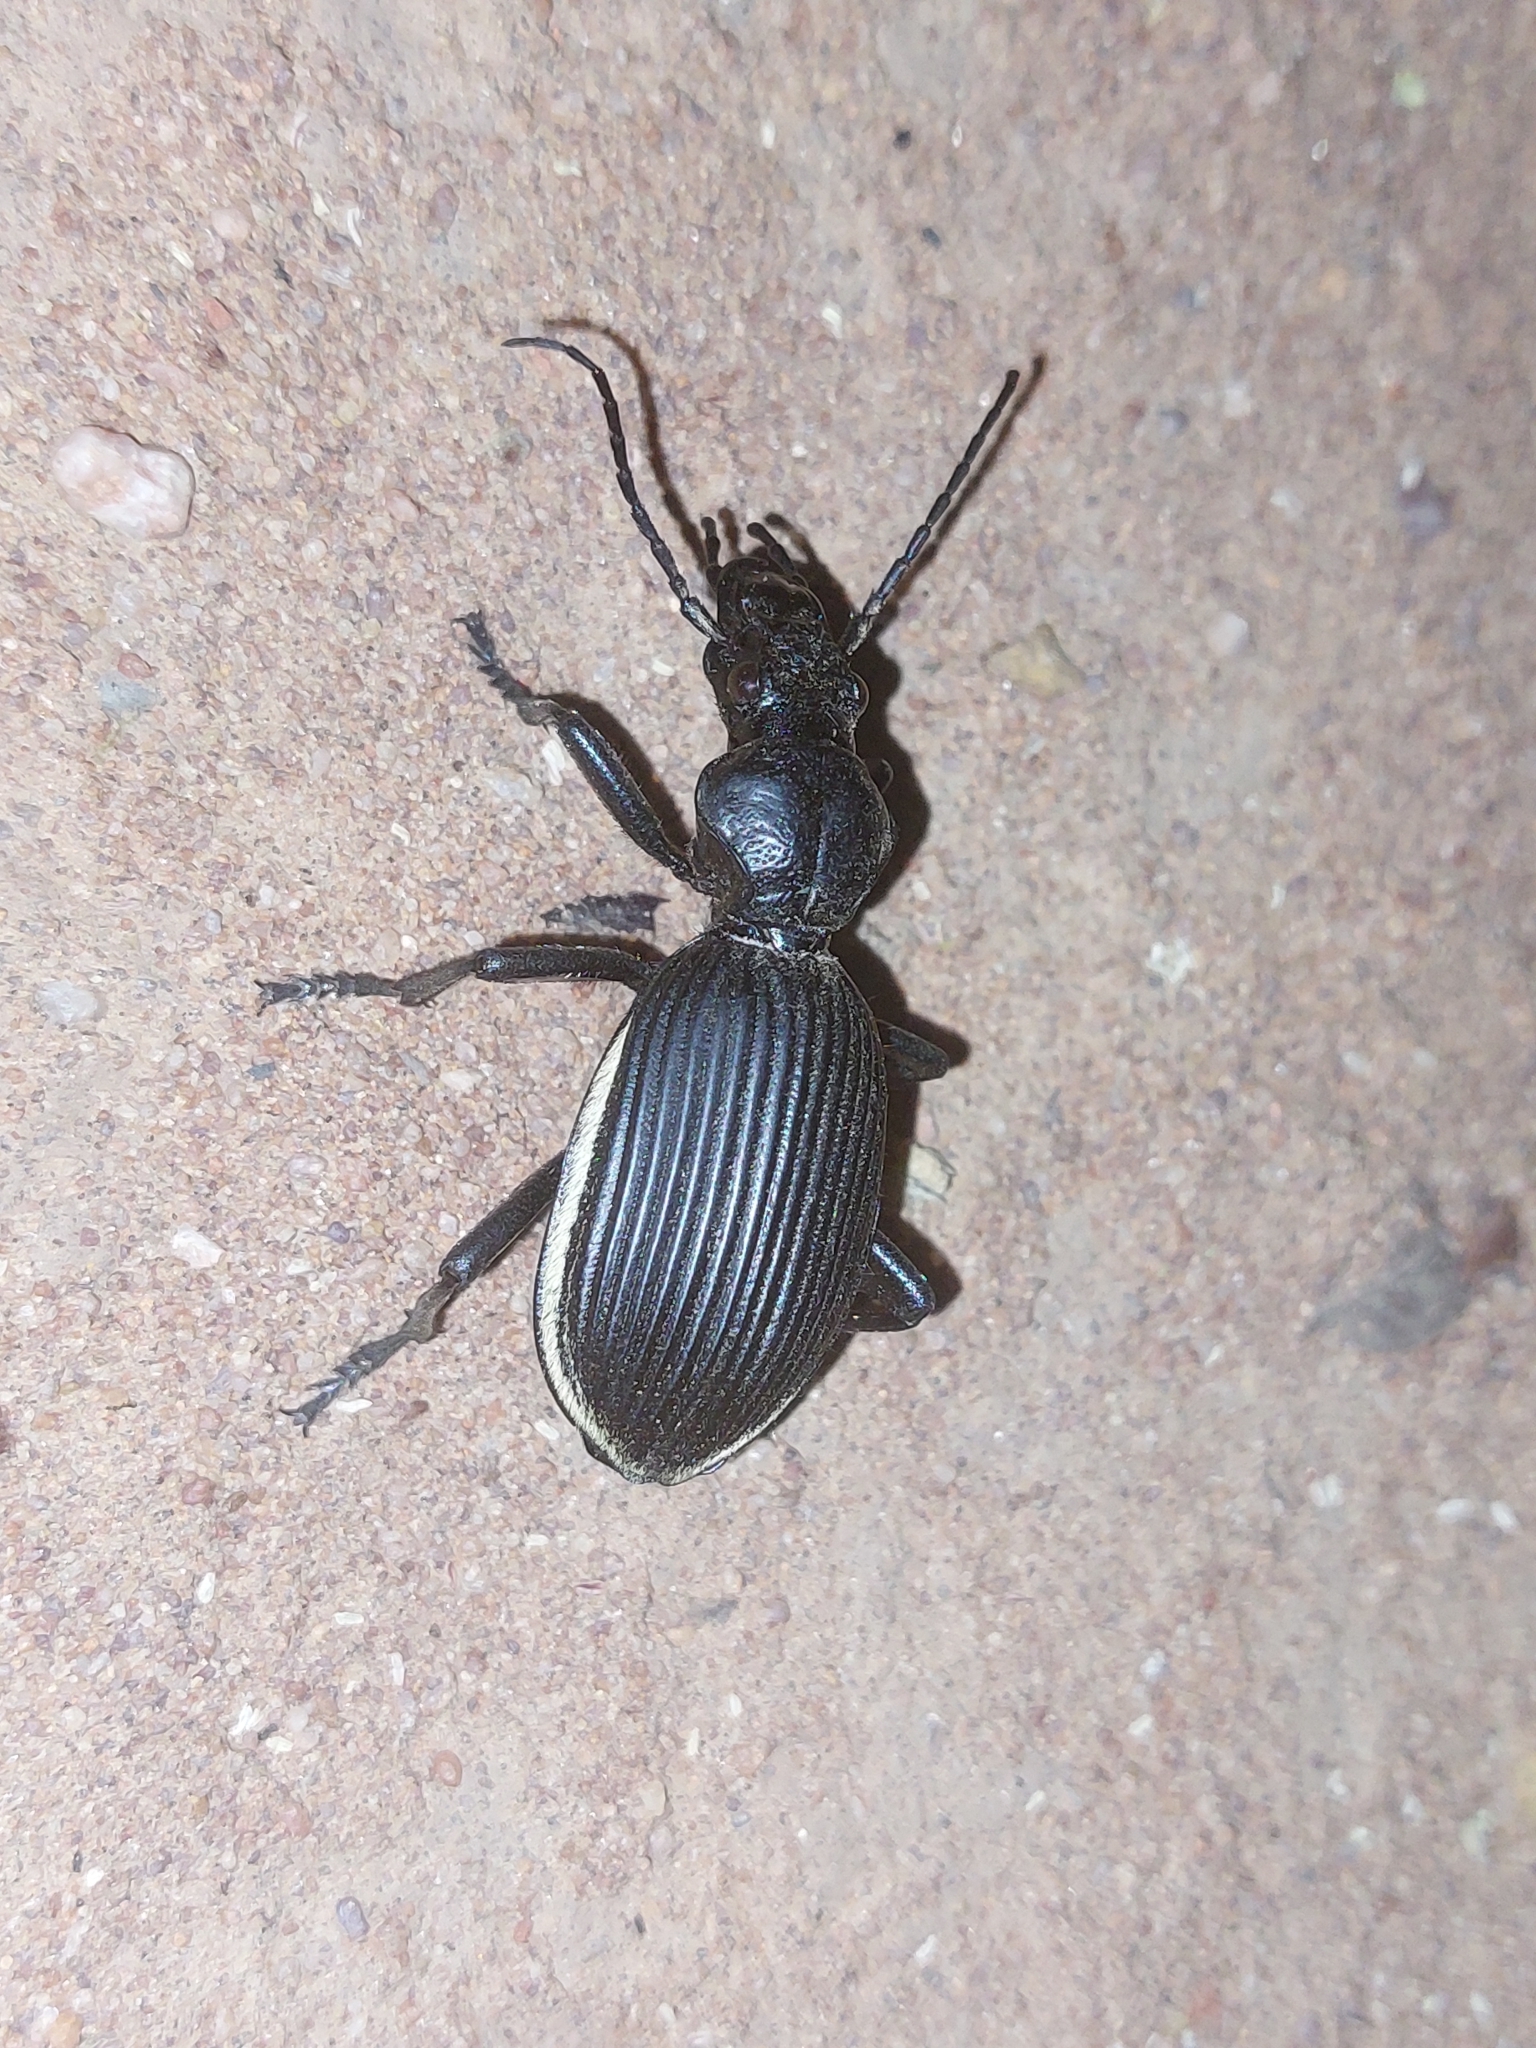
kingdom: Animalia
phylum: Arthropoda
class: Insecta
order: Coleoptera
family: Carabidae
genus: Anthia
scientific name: Anthia massilicata
